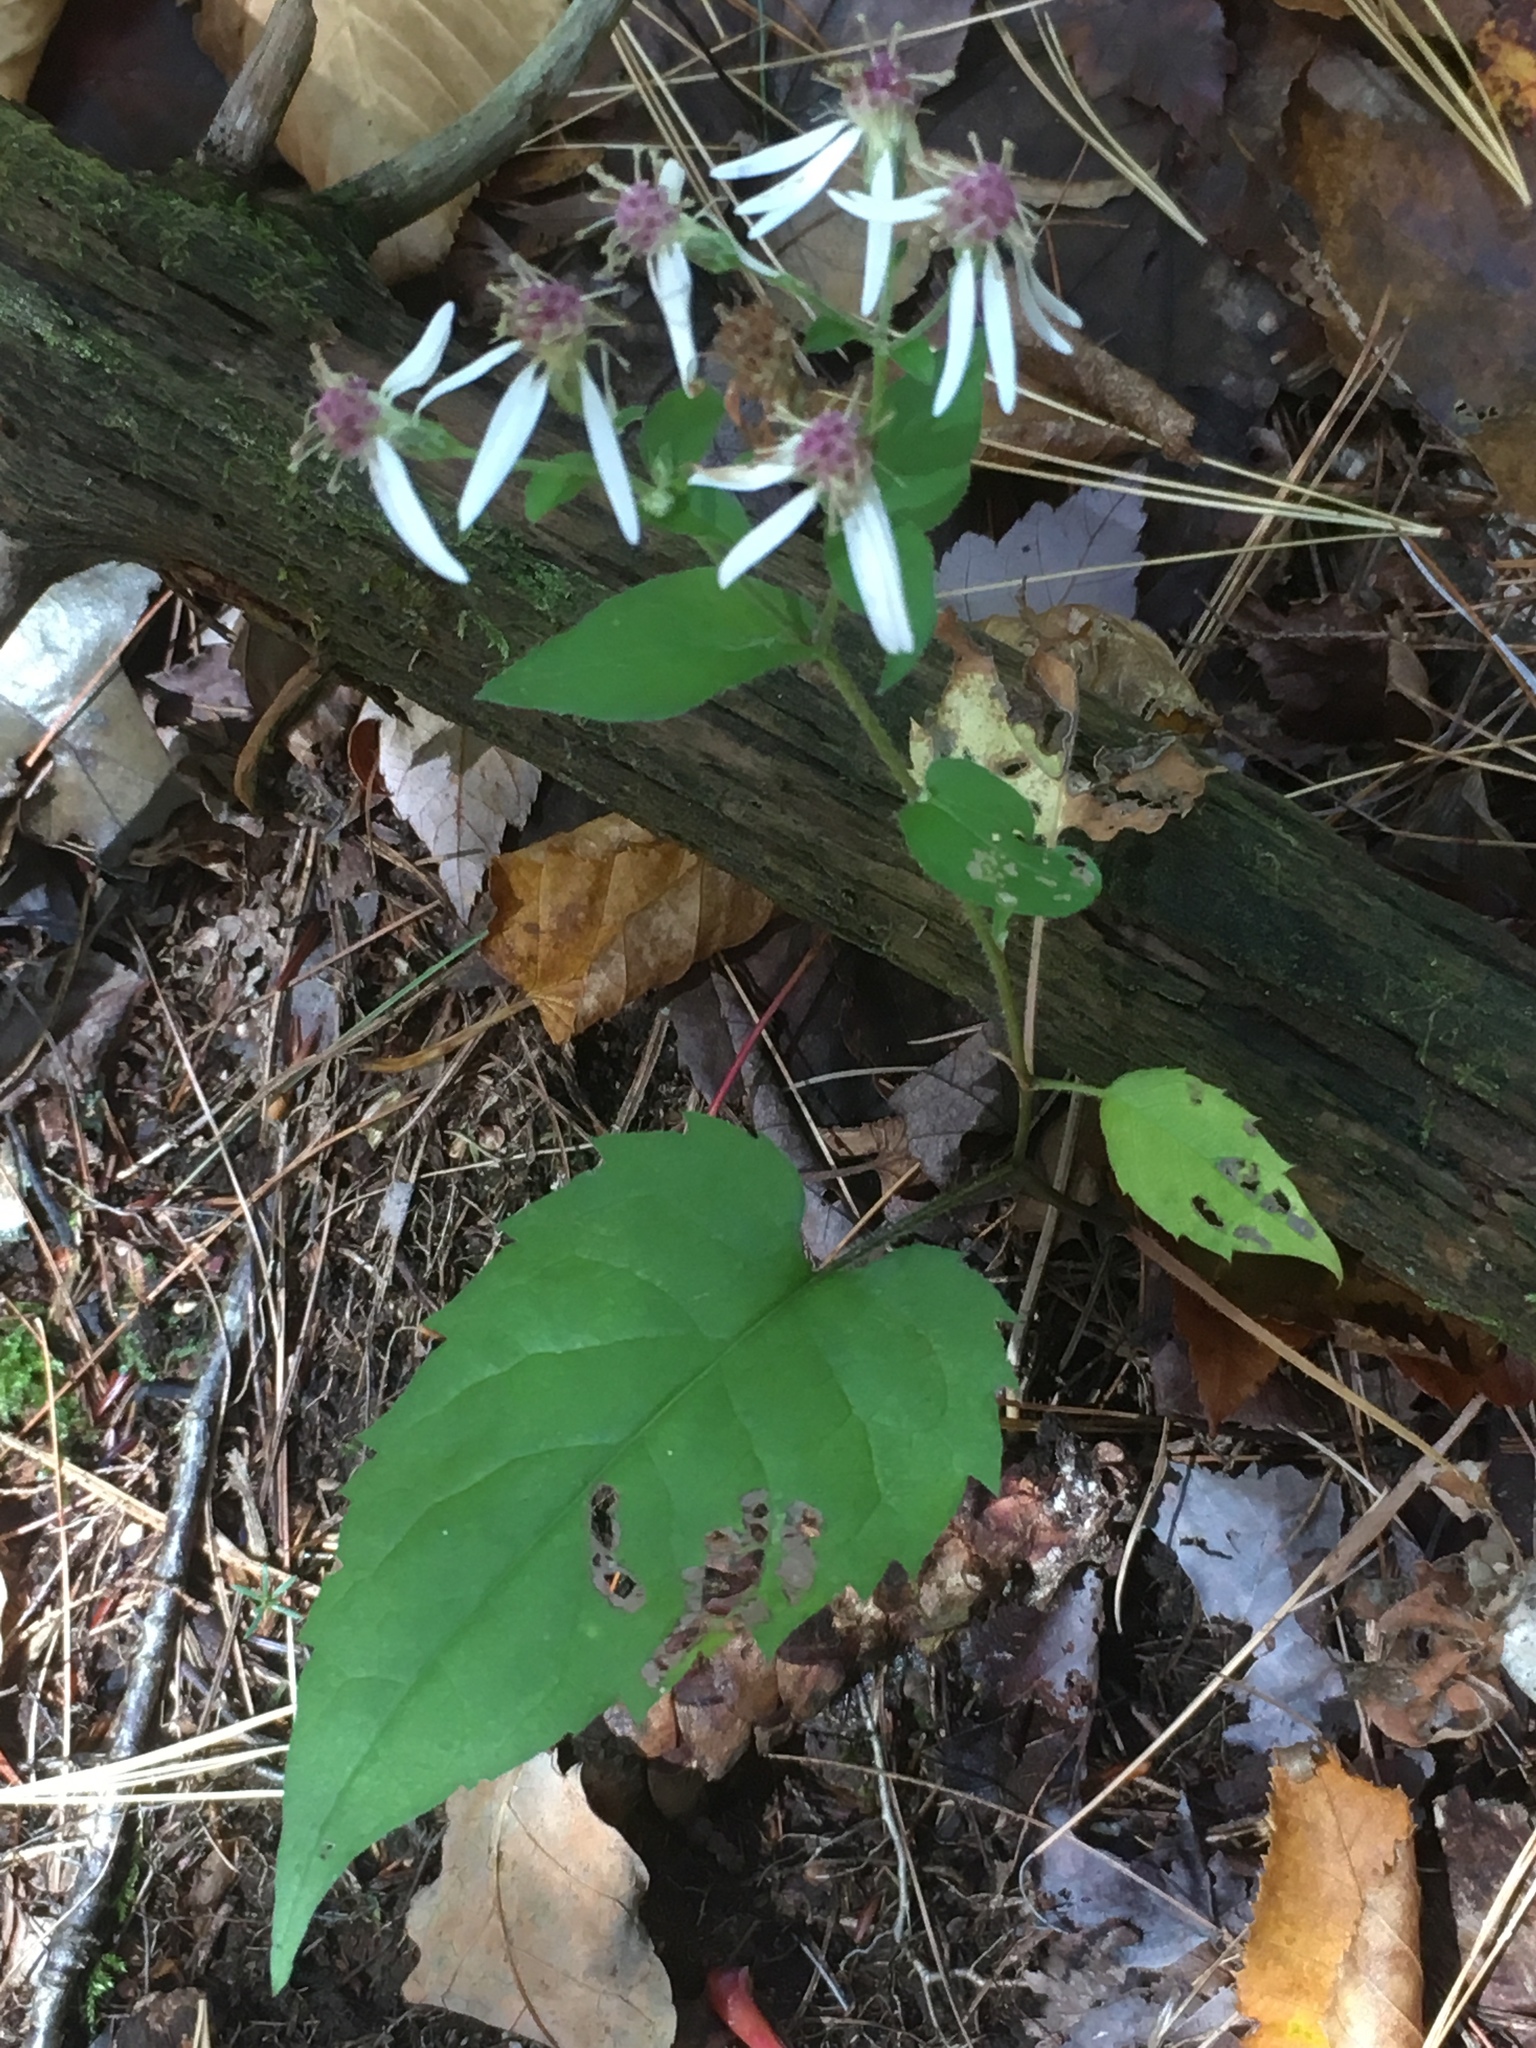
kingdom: Plantae
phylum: Tracheophyta
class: Magnoliopsida
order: Asterales
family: Asteraceae
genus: Eurybia
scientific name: Eurybia divaricata
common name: White wood aster
